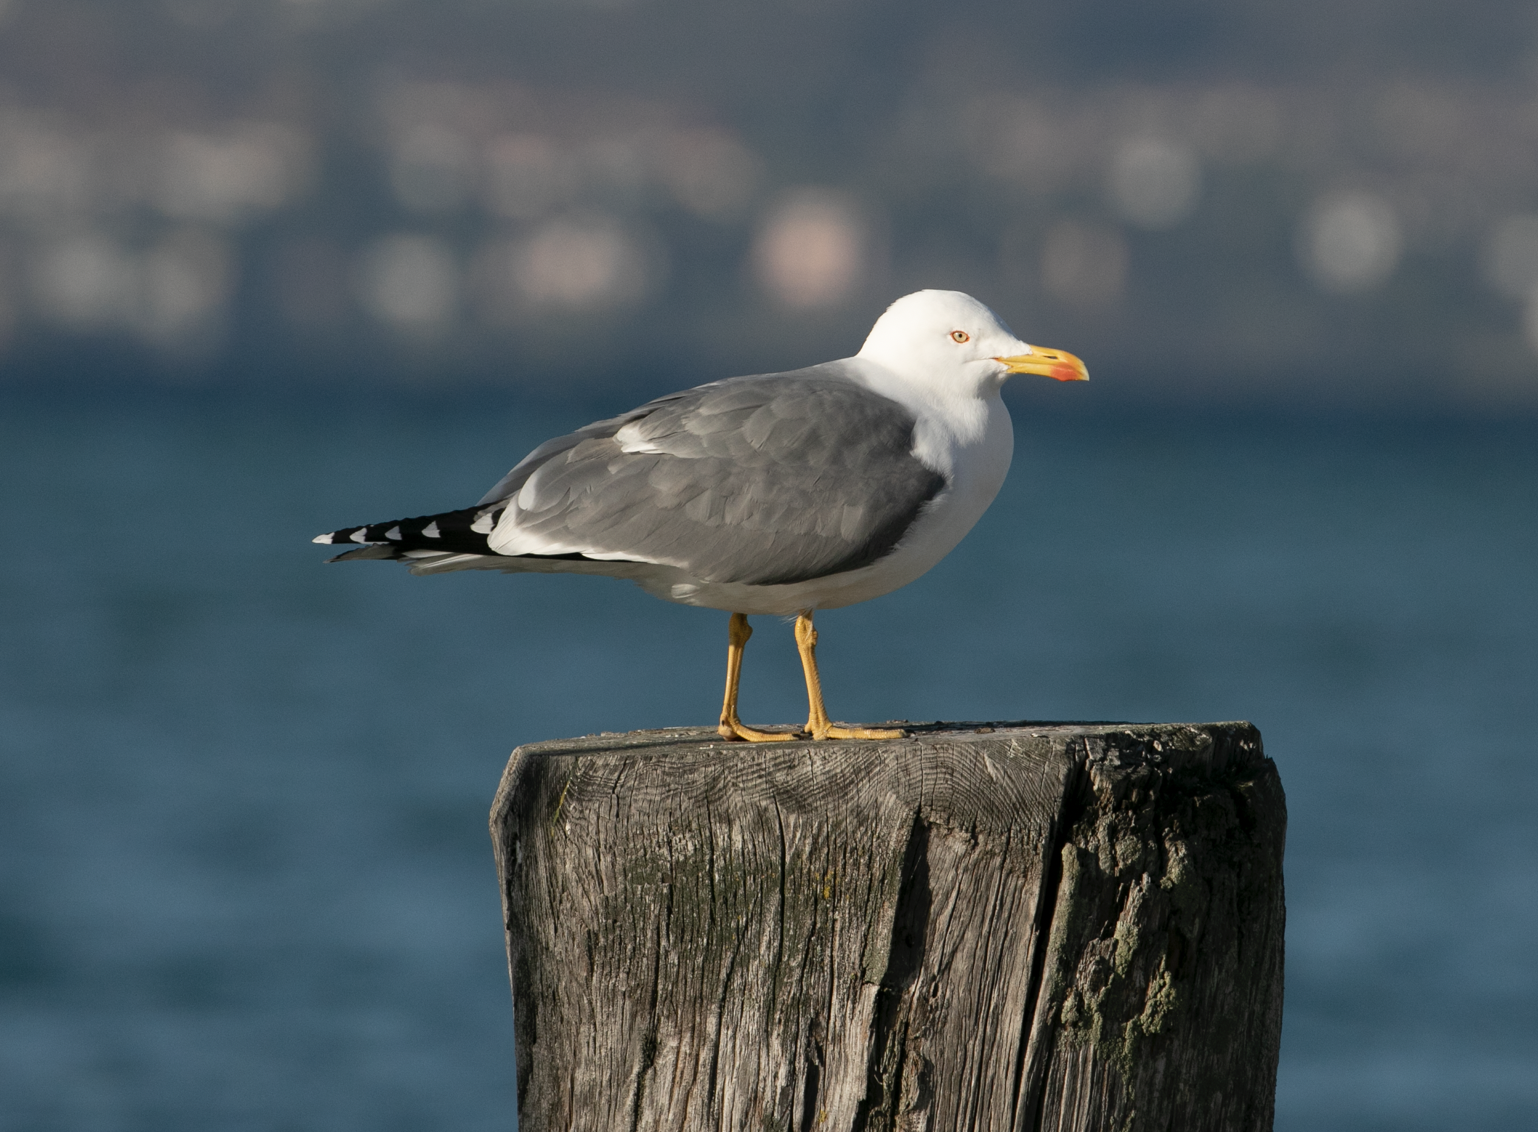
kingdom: Animalia
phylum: Chordata
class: Aves
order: Charadriiformes
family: Laridae
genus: Larus
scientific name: Larus michahellis
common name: Yellow-legged gull
